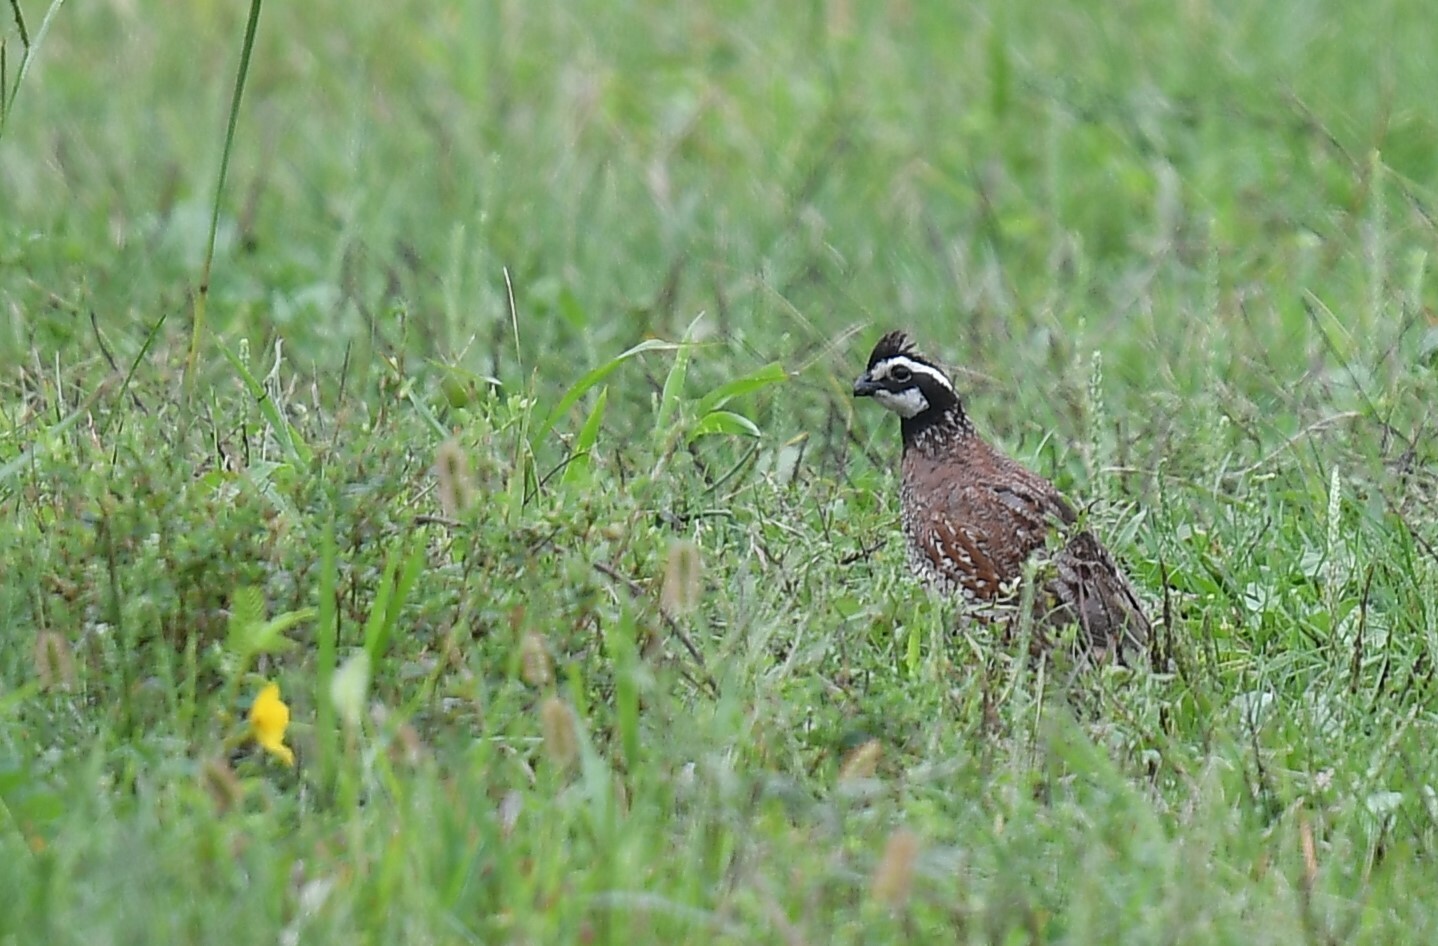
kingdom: Animalia
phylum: Chordata
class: Aves
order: Galliformes
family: Odontophoridae
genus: Colinus
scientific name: Colinus virginianus
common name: Northern bobwhite
